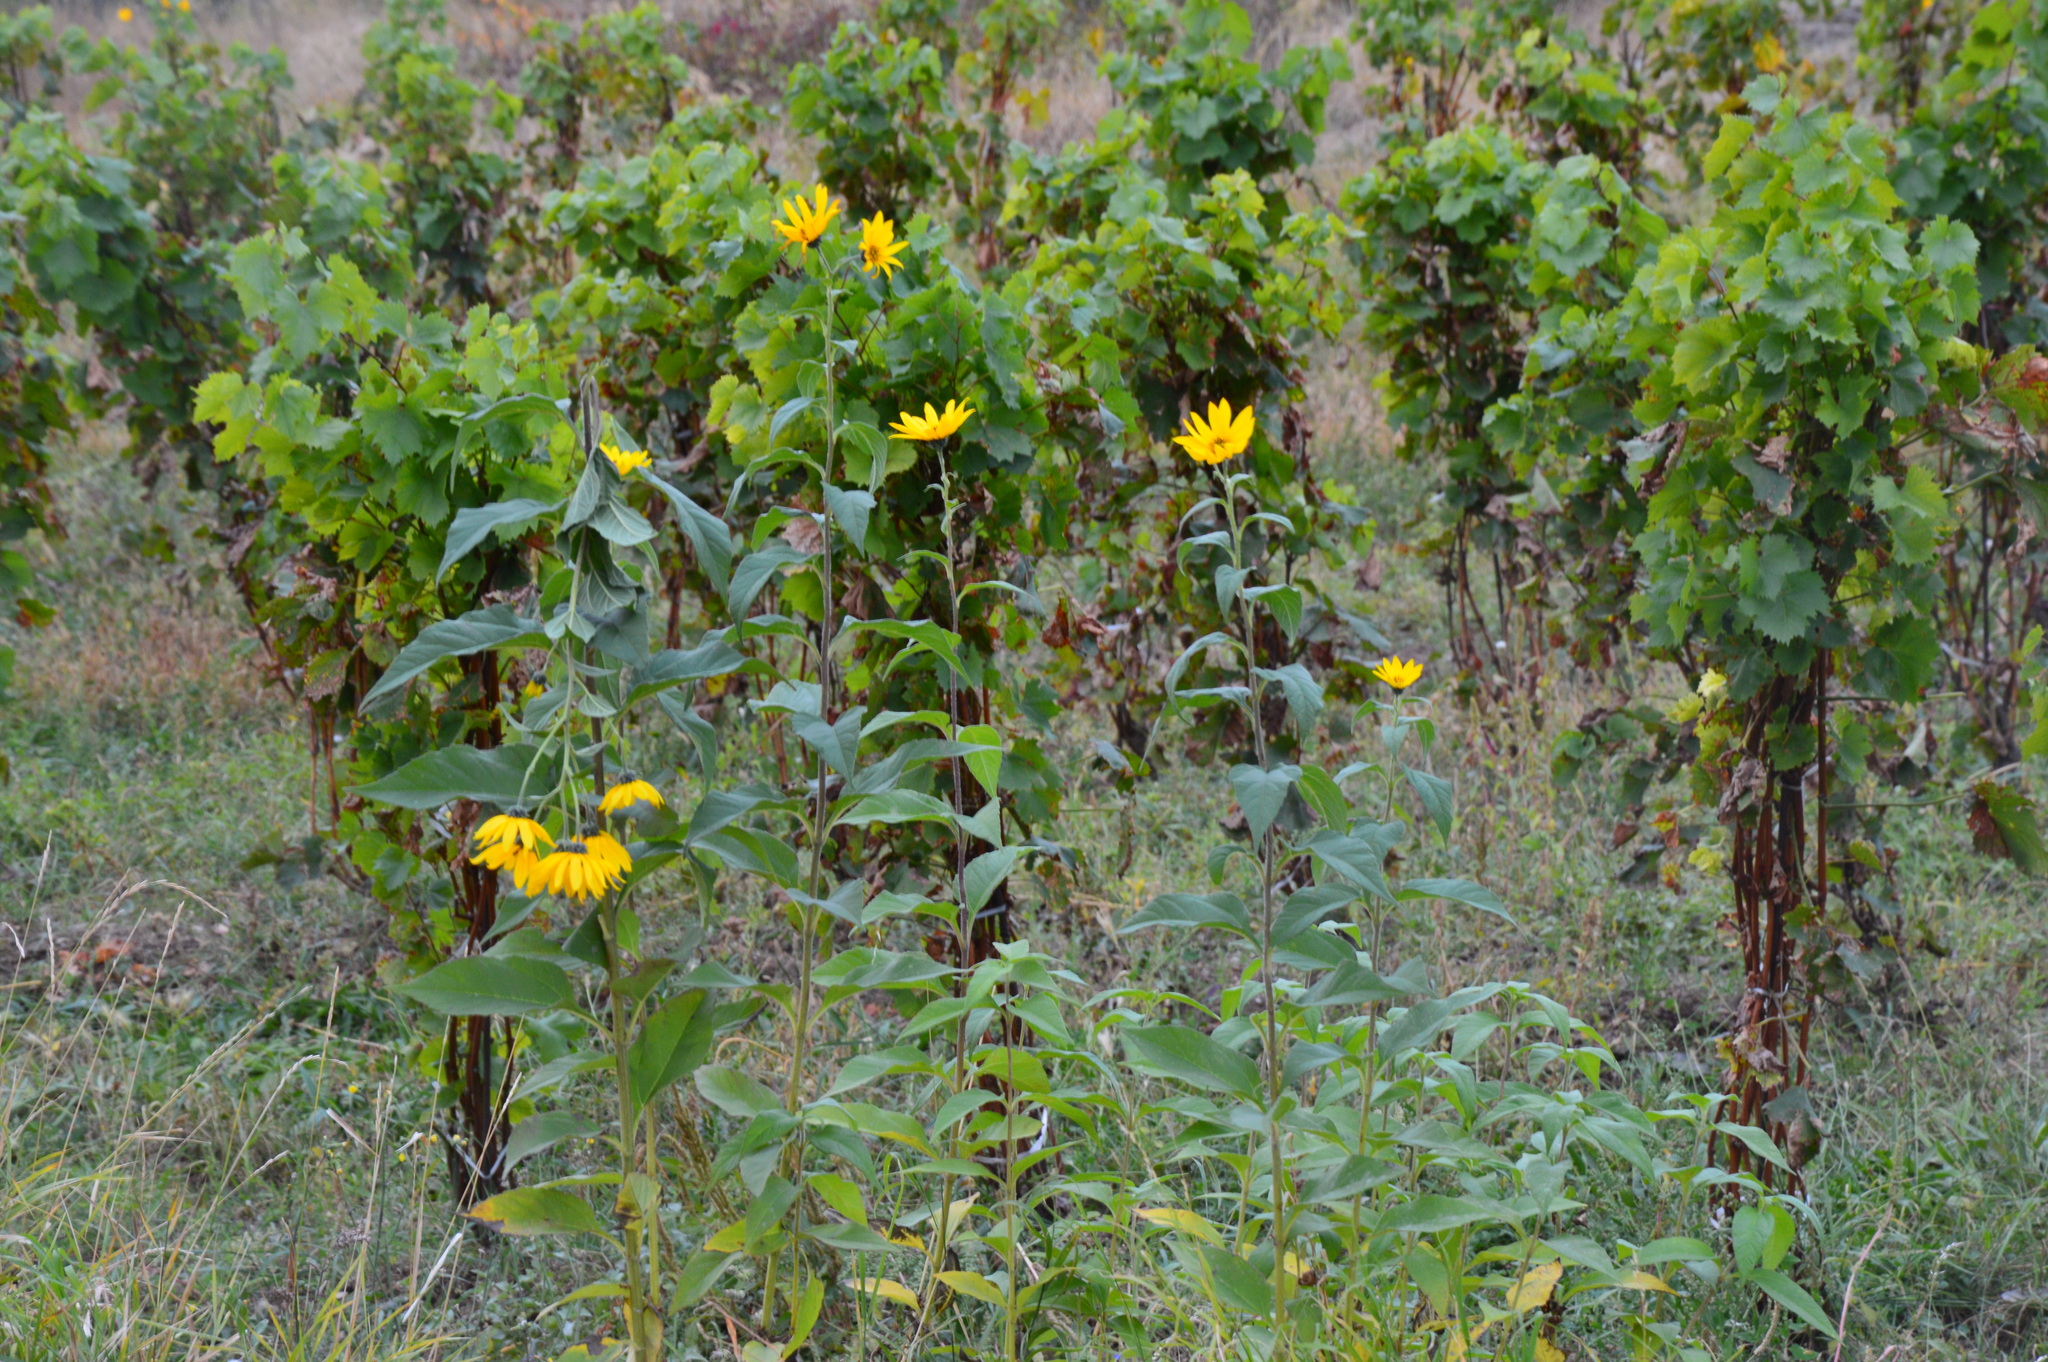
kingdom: Plantae
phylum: Tracheophyta
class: Magnoliopsida
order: Asterales
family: Asteraceae
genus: Helianthus
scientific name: Helianthus tuberosus
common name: Jerusalem artichoke
